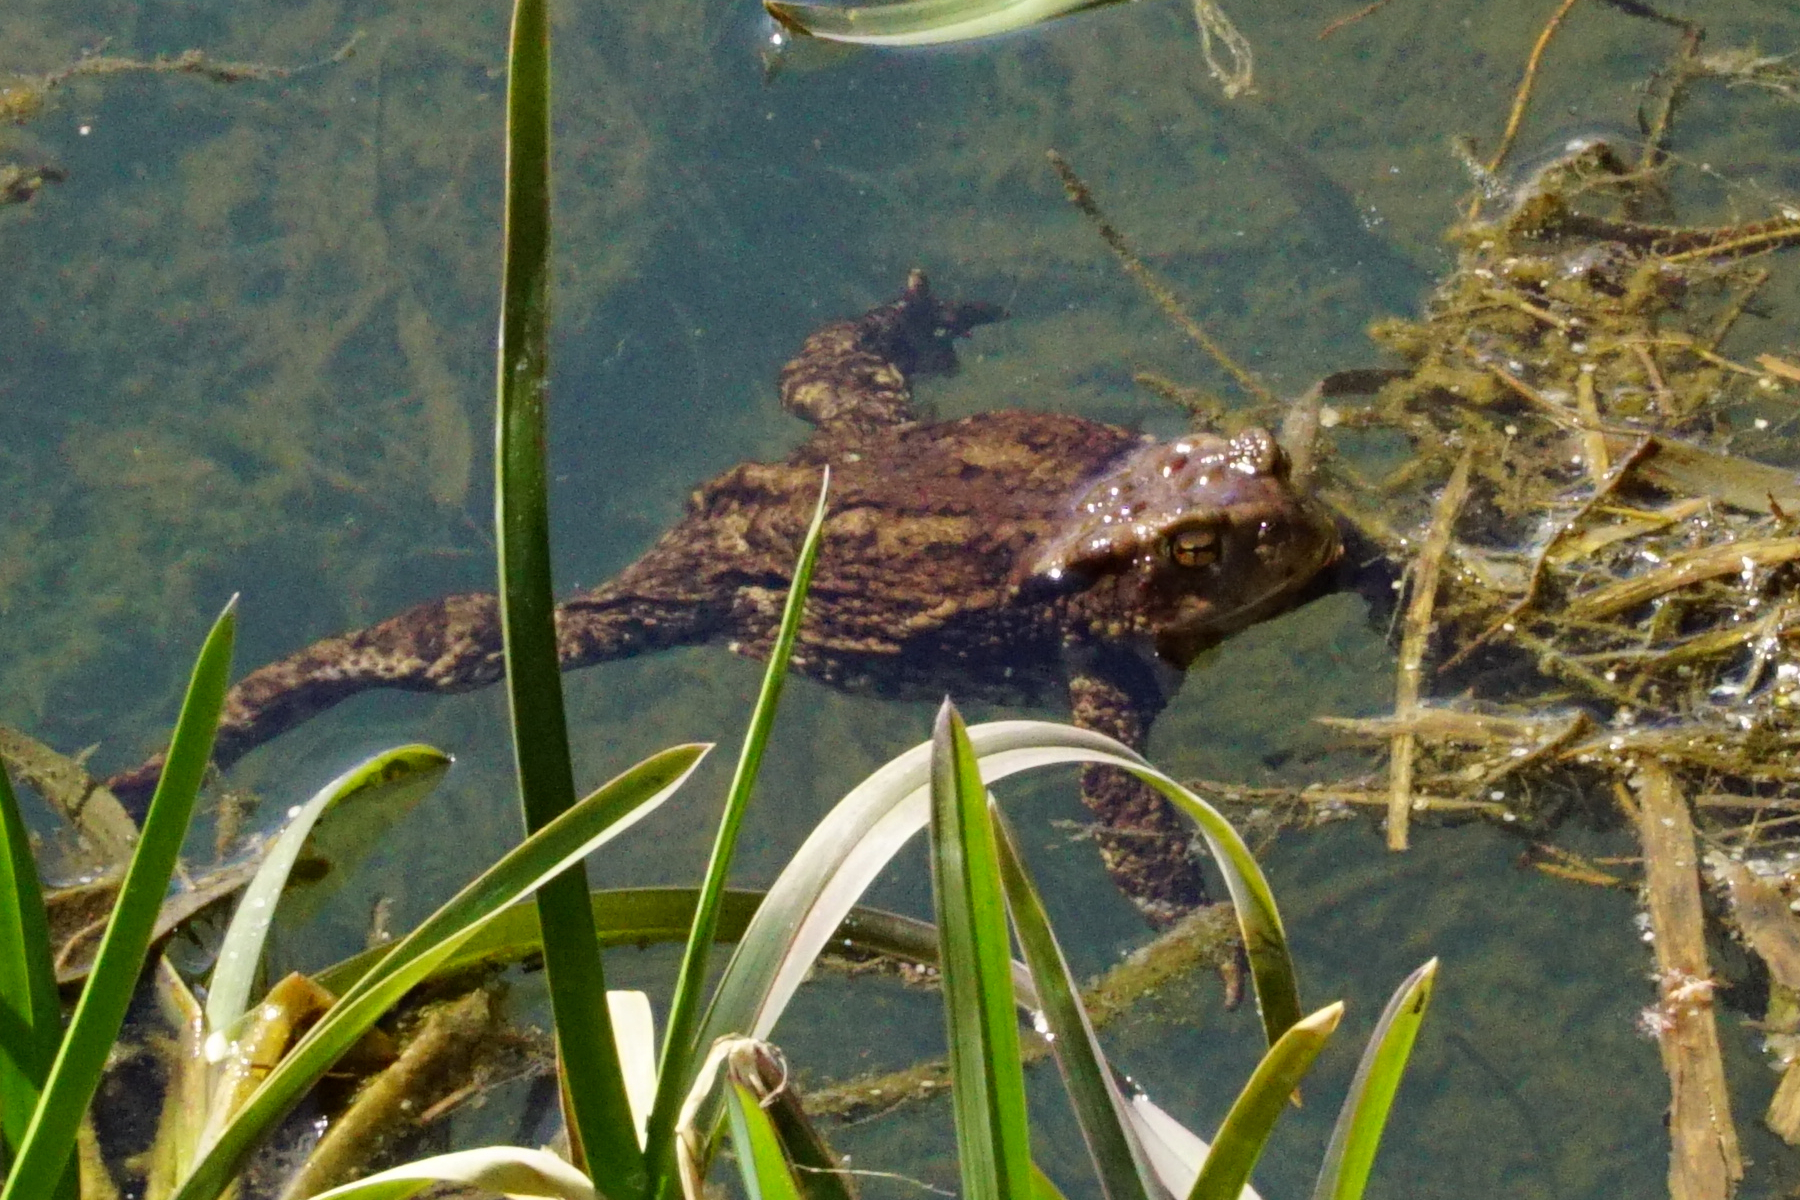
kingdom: Animalia
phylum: Chordata
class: Amphibia
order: Anura
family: Bufonidae
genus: Bufo
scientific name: Bufo bufo
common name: Common toad
